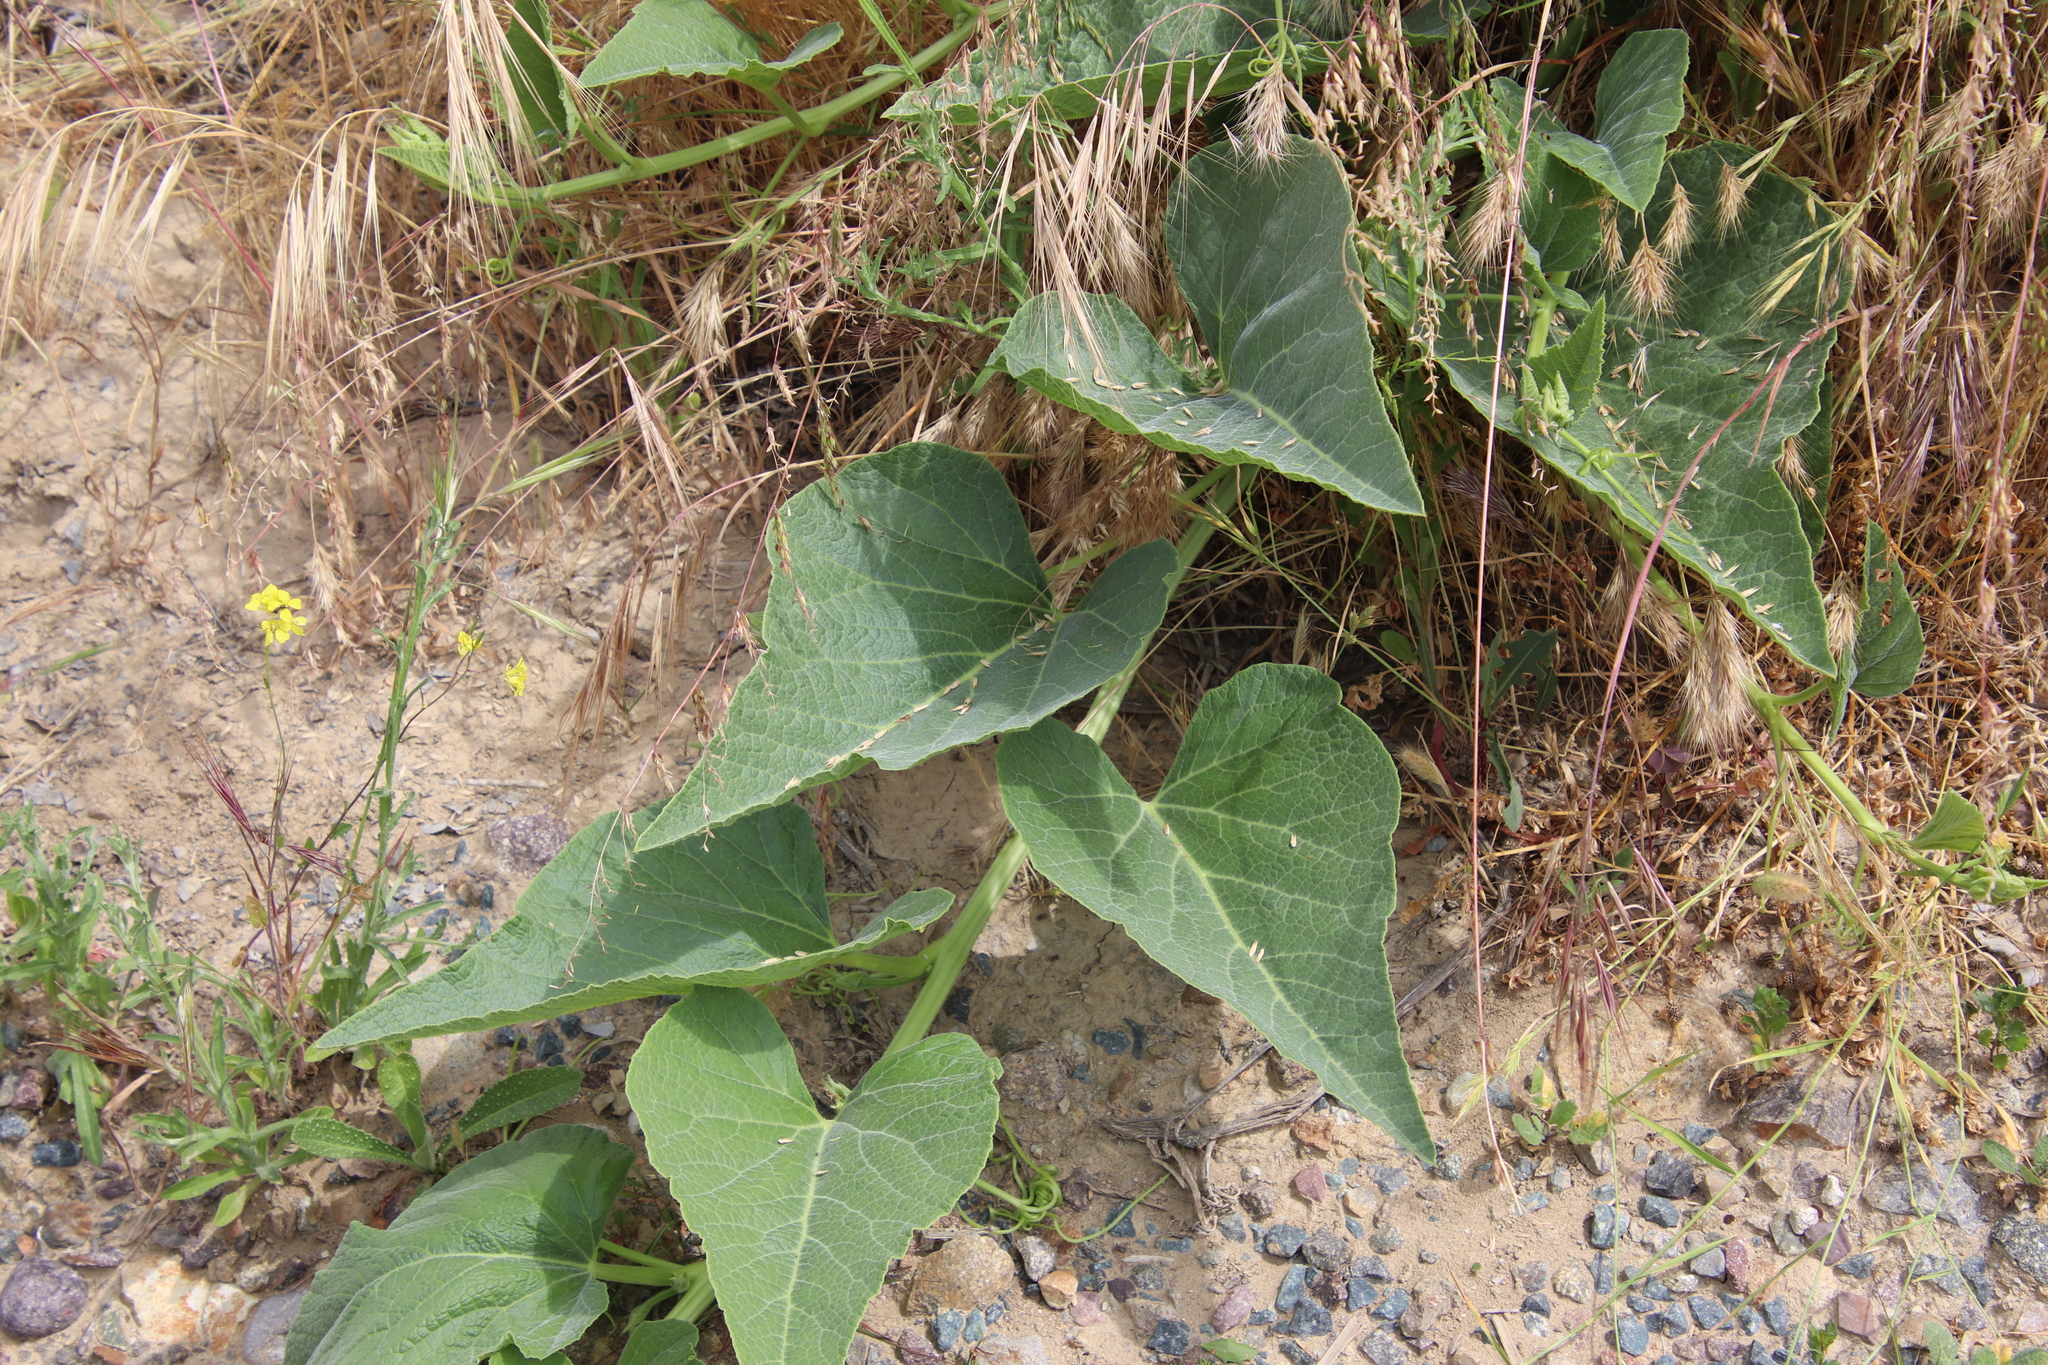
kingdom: Plantae
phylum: Tracheophyta
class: Magnoliopsida
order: Cucurbitales
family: Cucurbitaceae
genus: Cucurbita
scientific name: Cucurbita foetidissima
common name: Buffalo gourd
